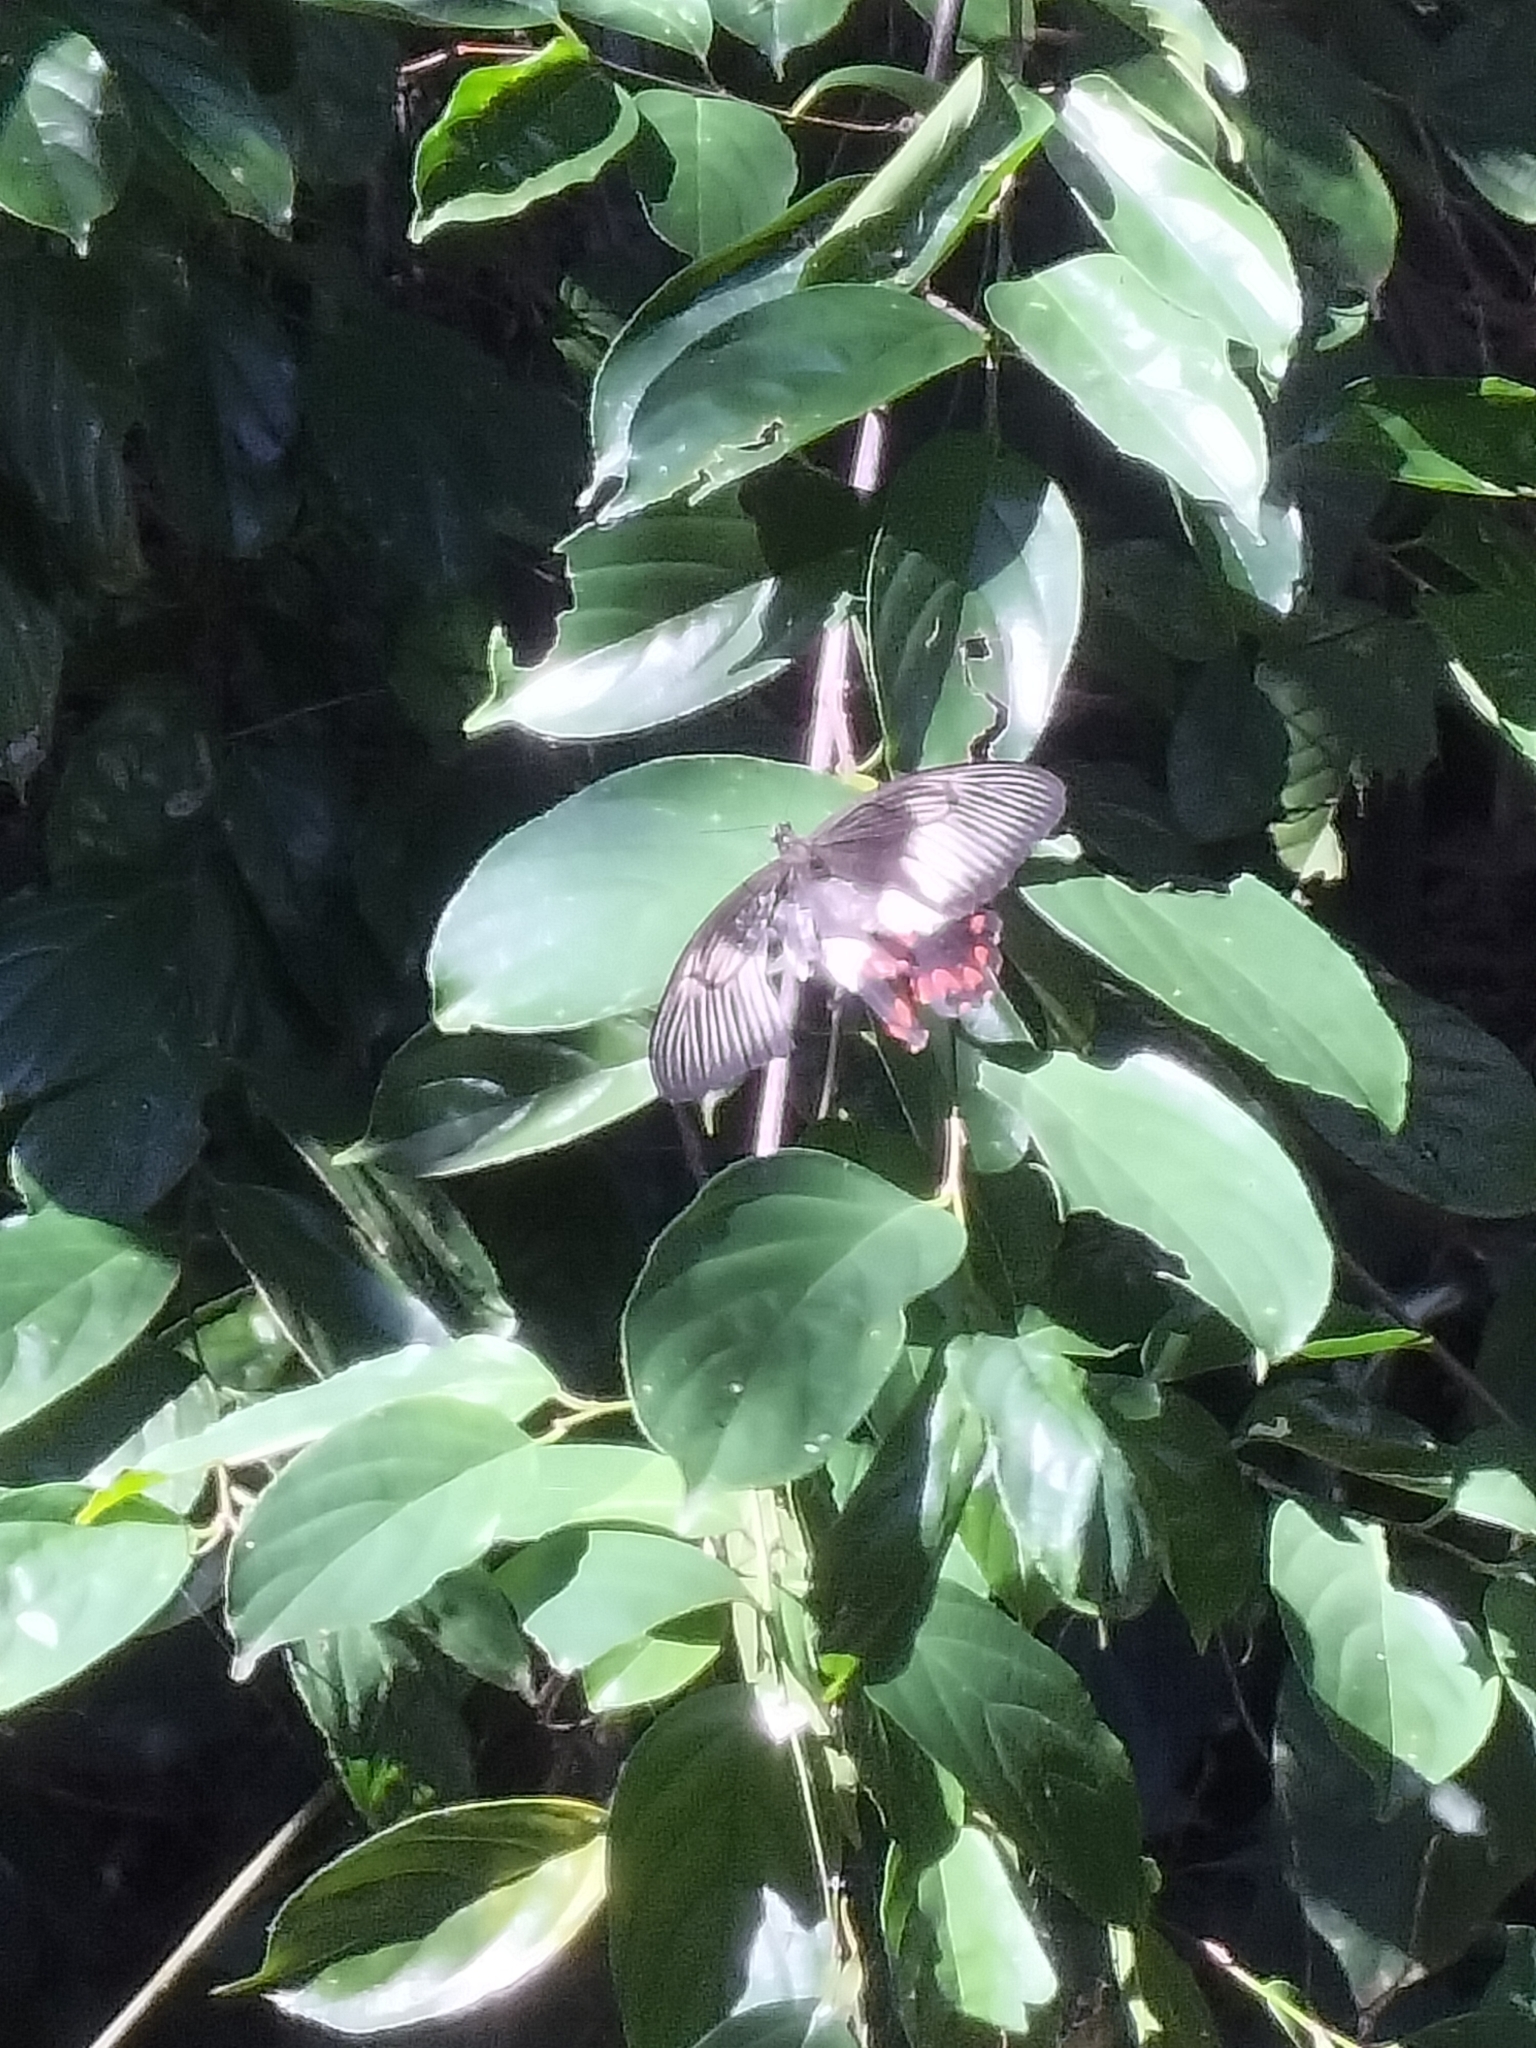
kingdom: Animalia
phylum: Arthropoda
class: Insecta
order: Lepidoptera
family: Papilionidae
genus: Papilio
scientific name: Papilio ambrax
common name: Ambrax butterfly
